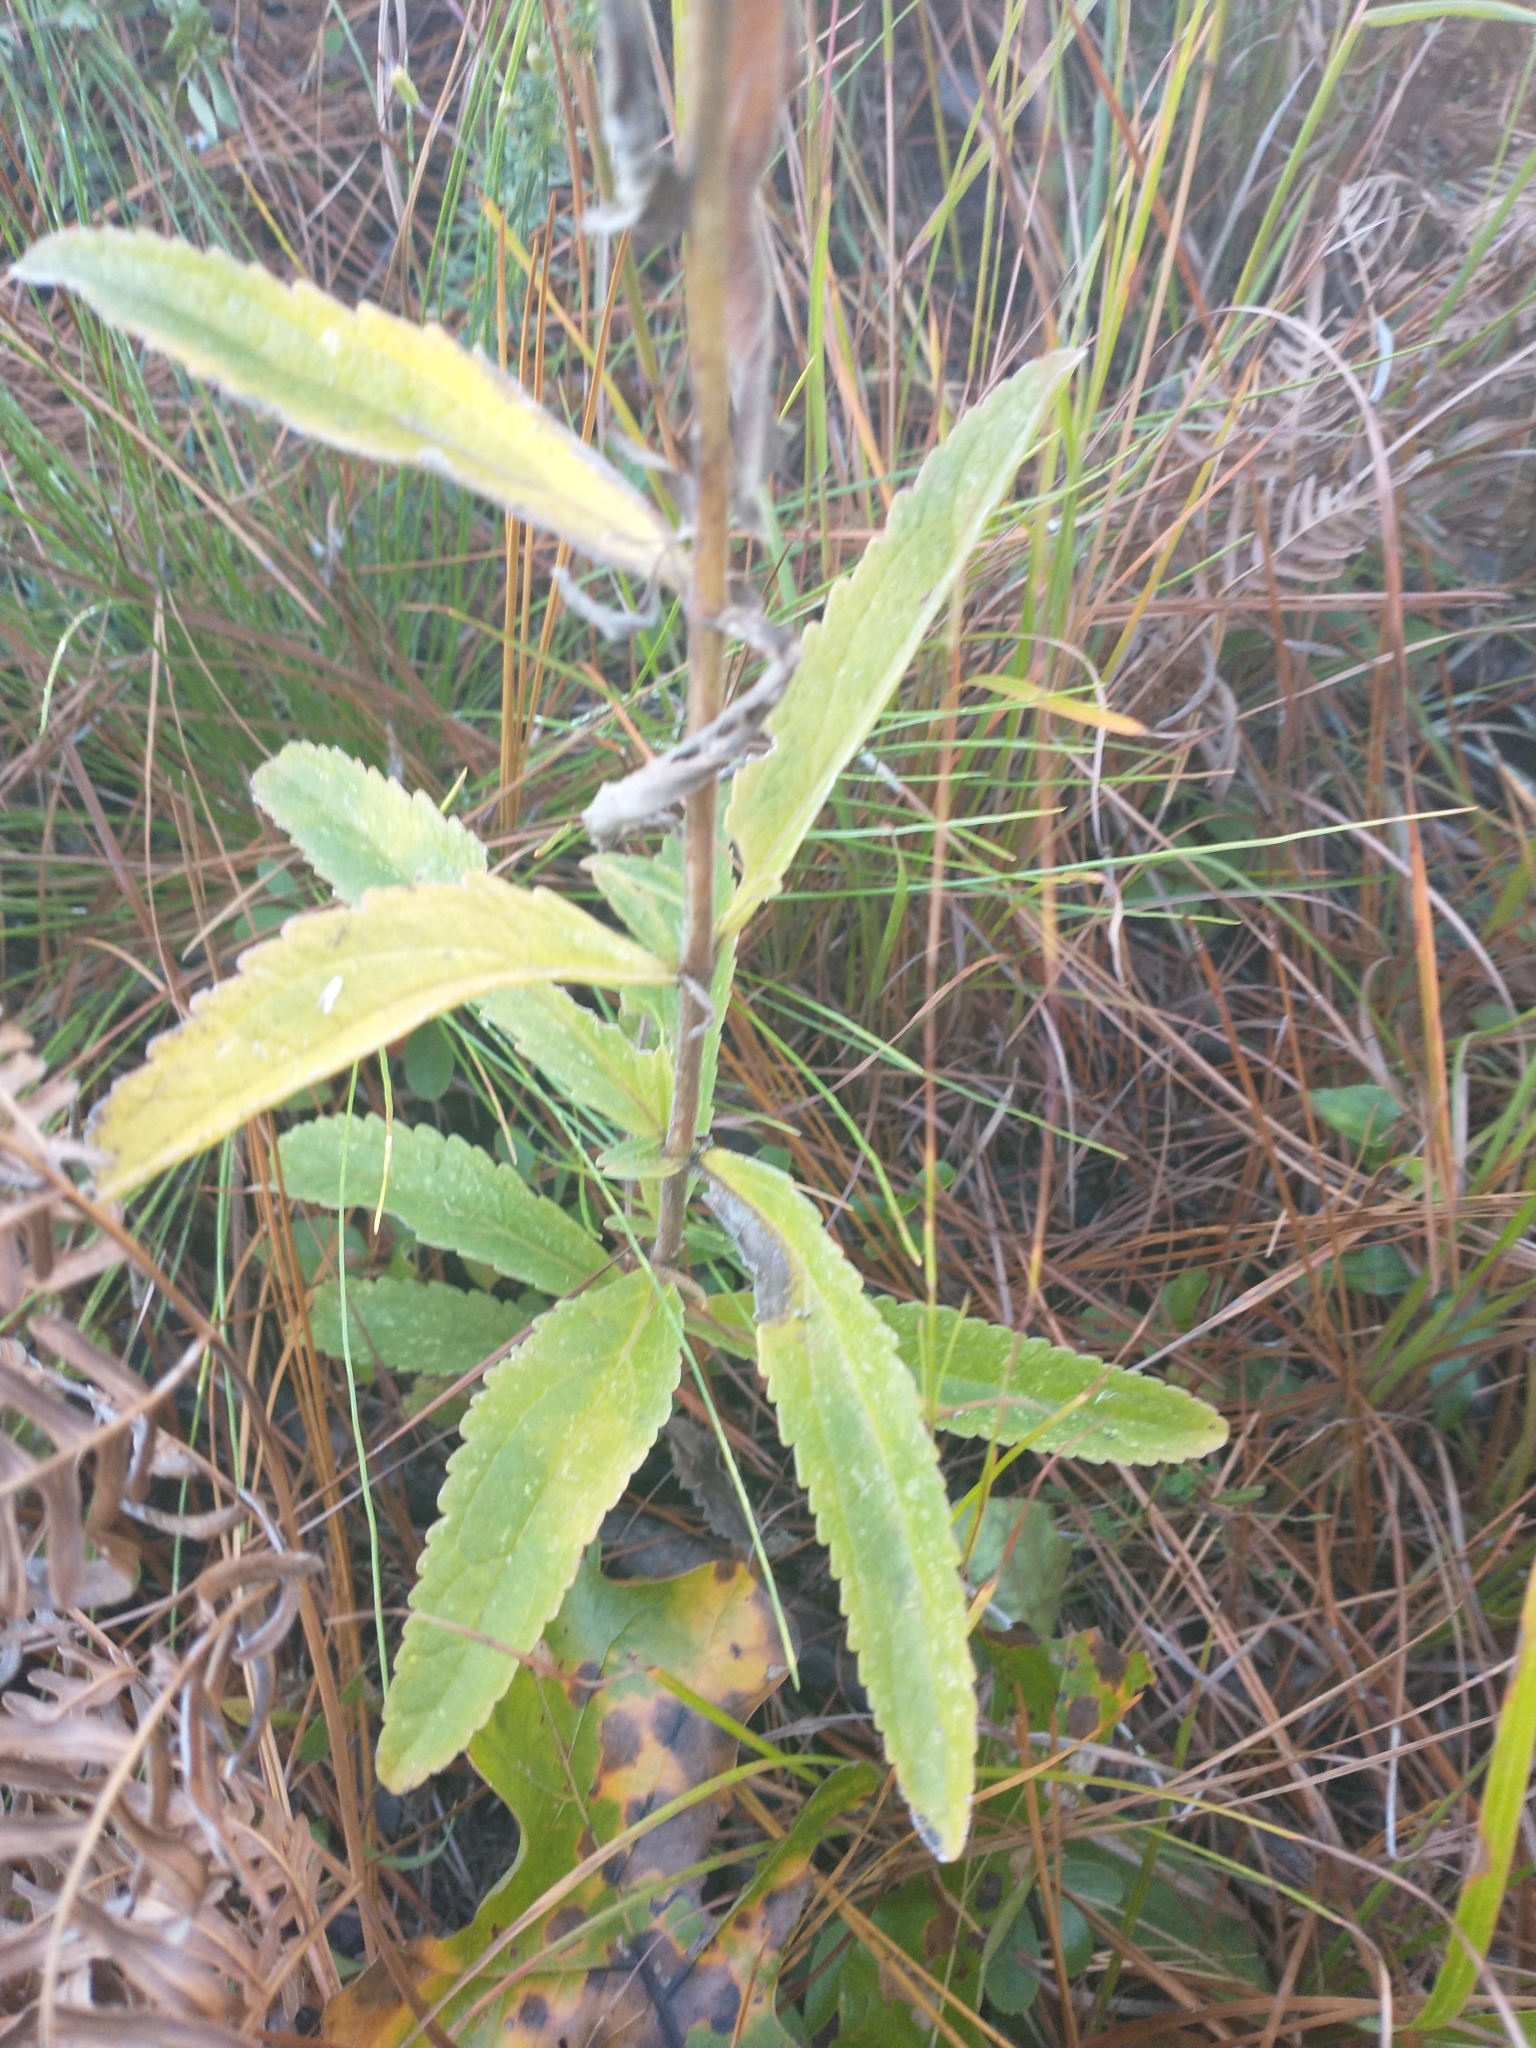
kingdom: Plantae
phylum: Tracheophyta
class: Magnoliopsida
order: Asterales
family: Asteraceae
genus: Eupatorium
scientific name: Eupatorium album
